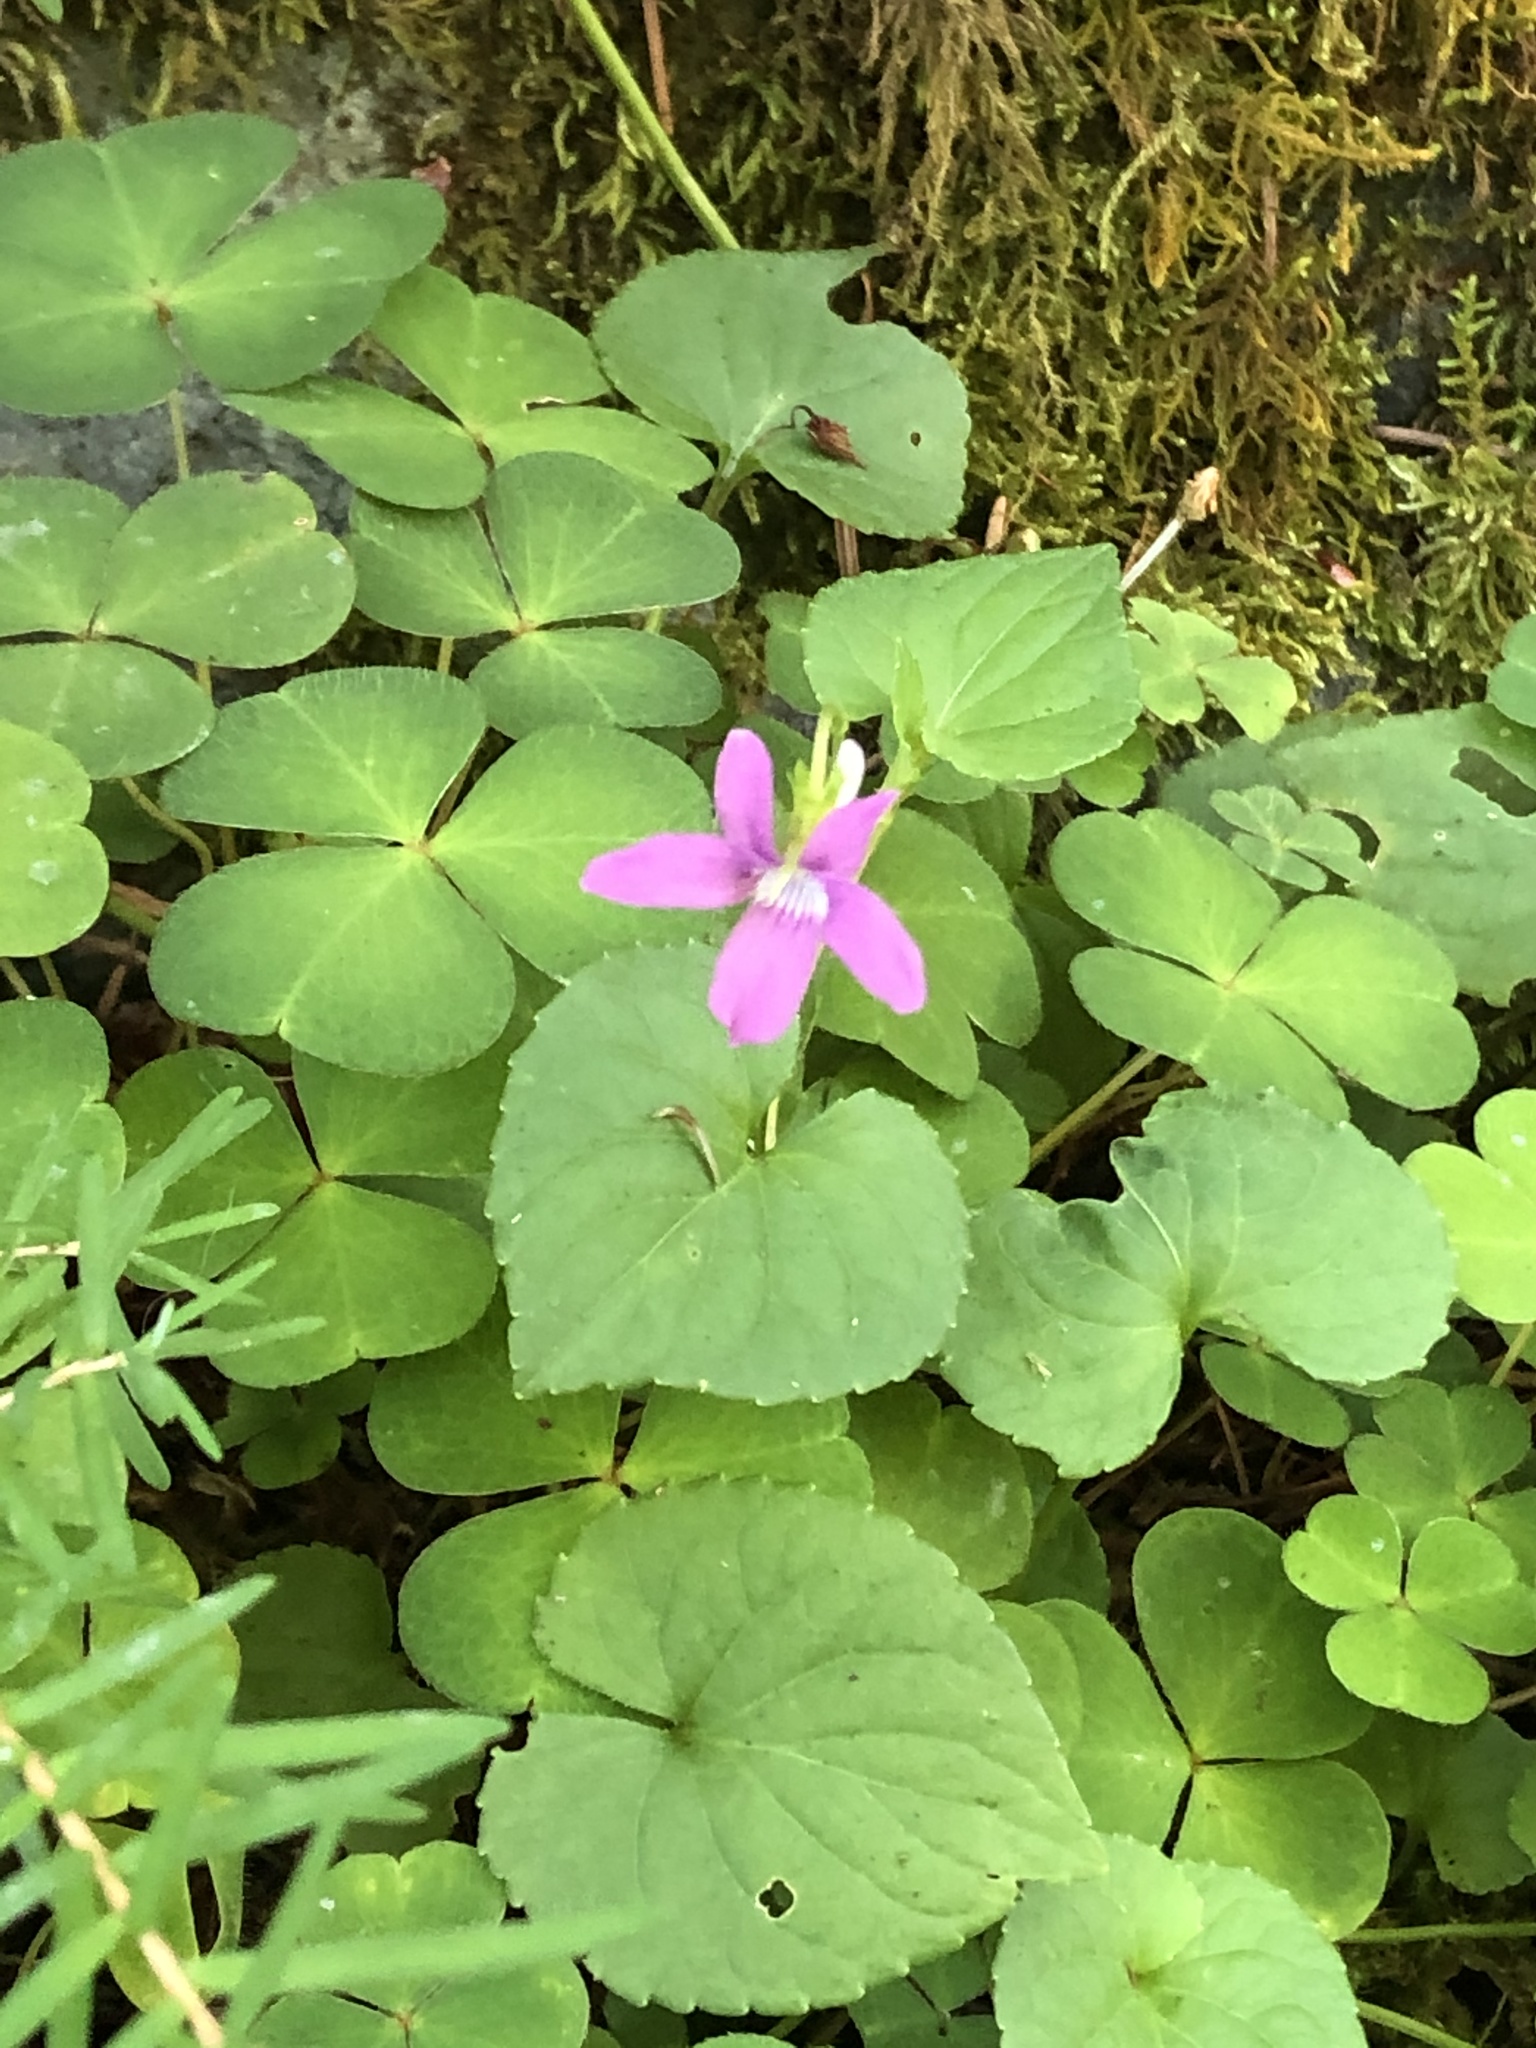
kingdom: Plantae
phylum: Tracheophyta
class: Magnoliopsida
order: Malpighiales
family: Violaceae
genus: Viola
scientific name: Viola riviniana
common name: Common dog-violet
